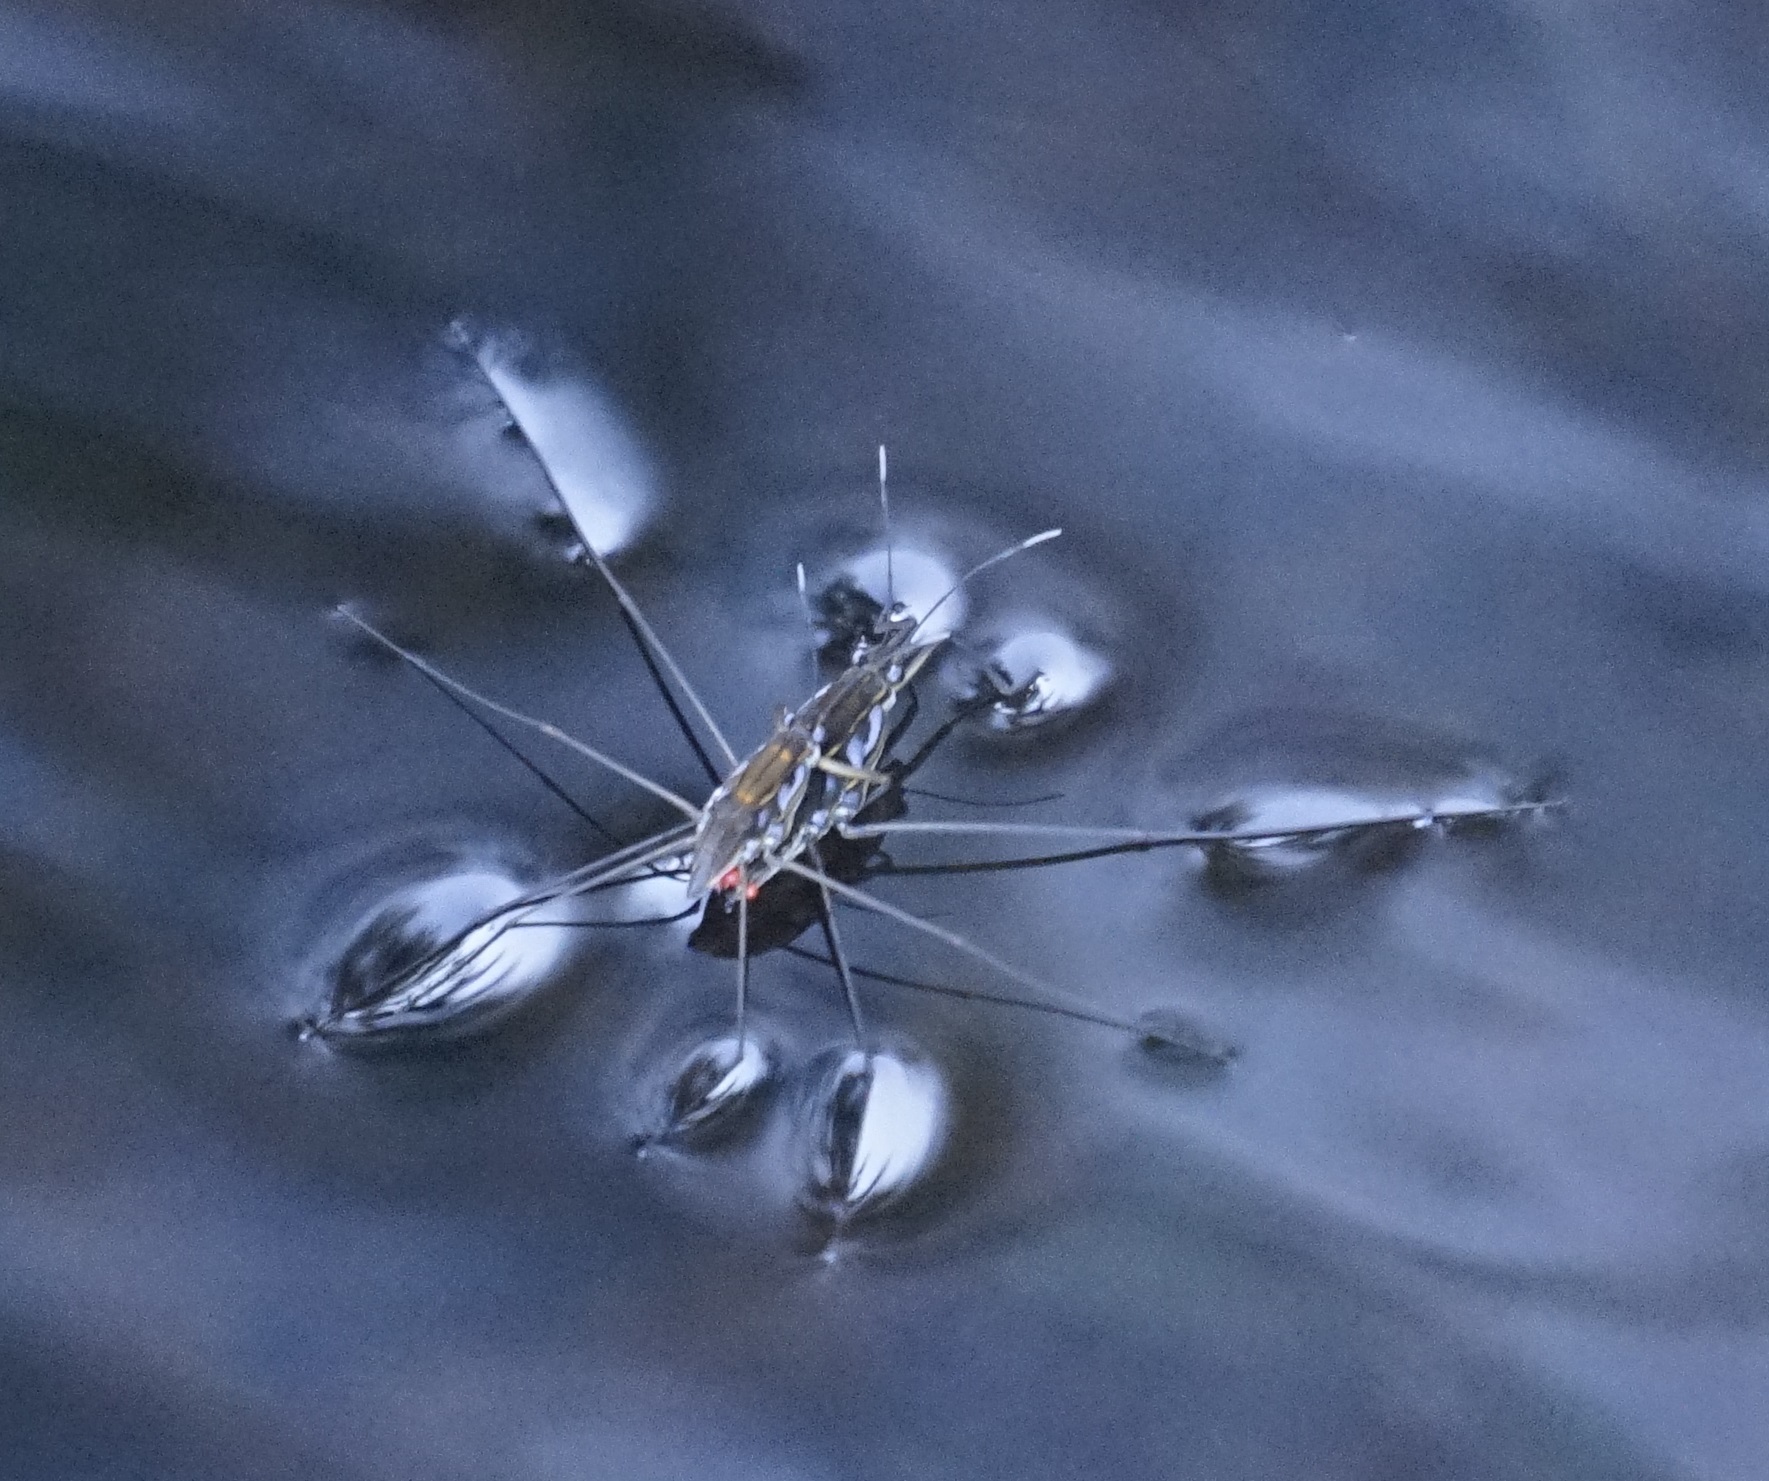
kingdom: Animalia
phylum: Arthropoda
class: Insecta
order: Hemiptera
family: Gerridae
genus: Tenagogerris
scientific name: Tenagogerris euphrosyne
